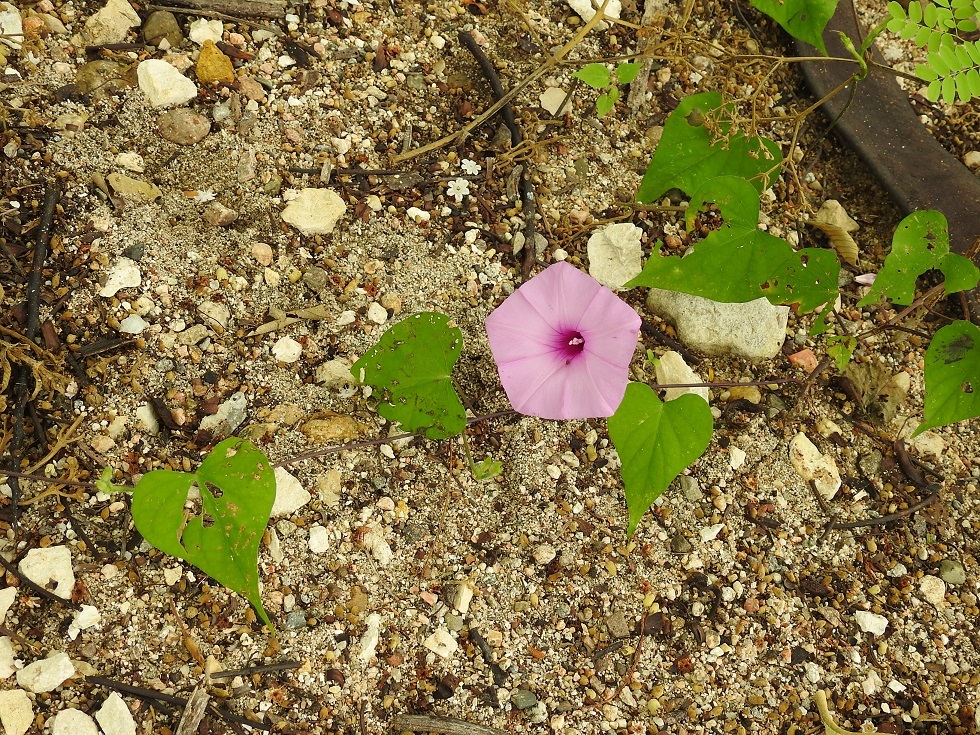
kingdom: Plantae
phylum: Tracheophyta
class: Magnoliopsida
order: Solanales
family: Convolvulaceae
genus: Ipomoea
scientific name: Ipomoea trifida
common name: Cotton morningglory
